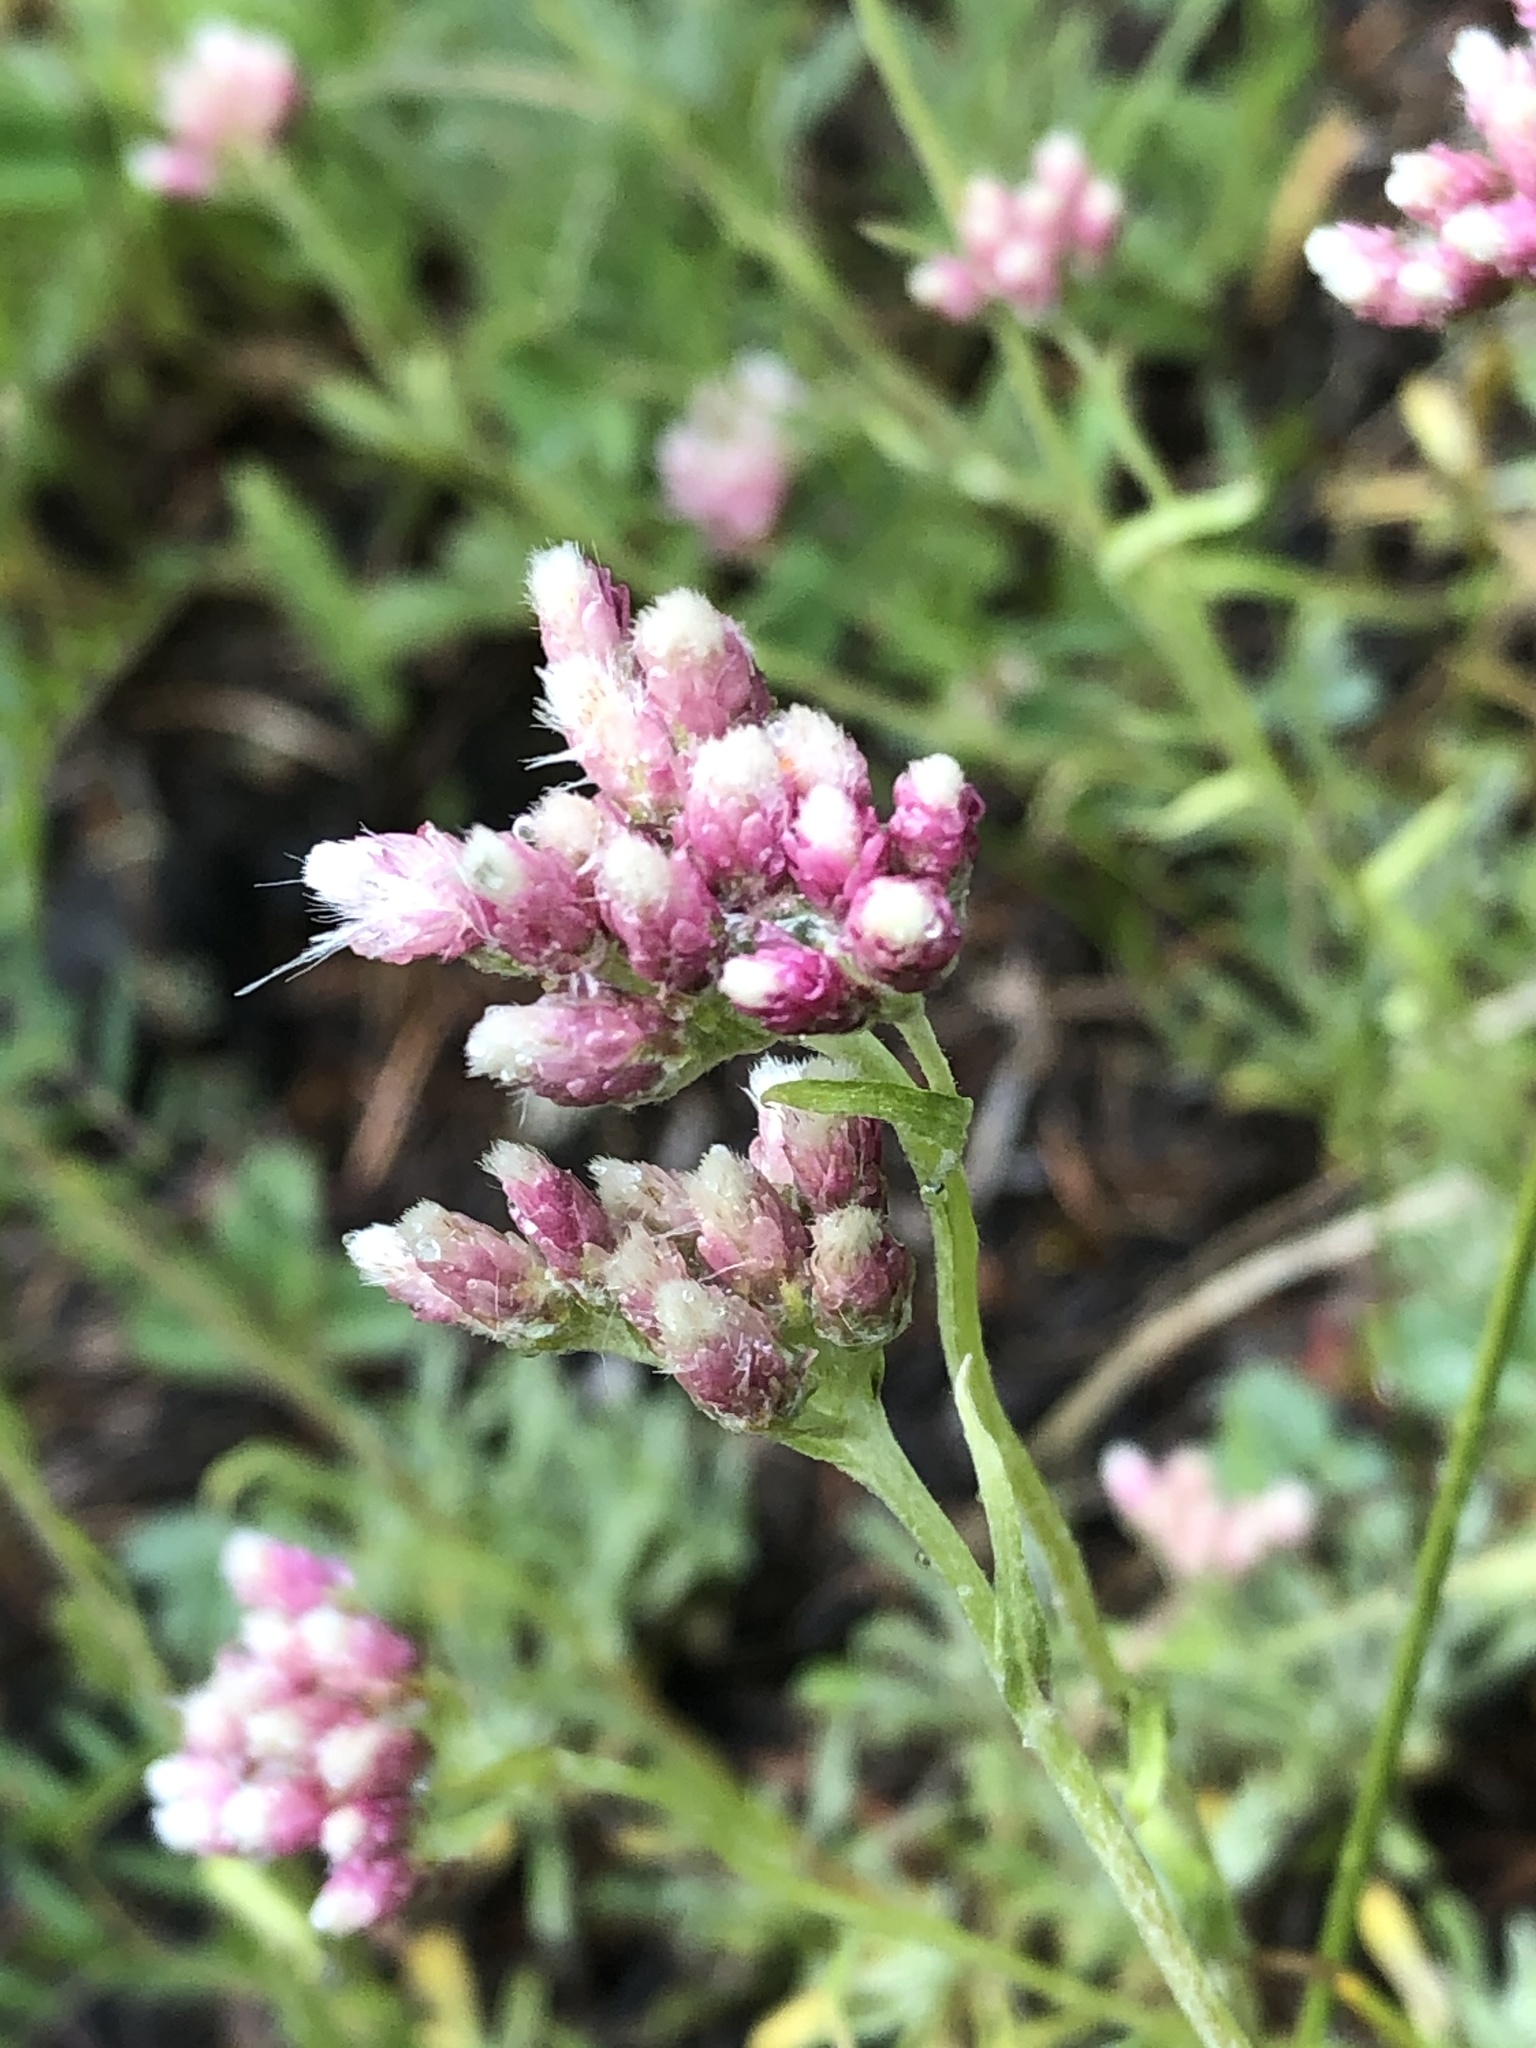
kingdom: Plantae
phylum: Tracheophyta
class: Magnoliopsida
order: Asterales
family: Asteraceae
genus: Antennaria
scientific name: Antennaria rosea
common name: Rosy pussytoes
